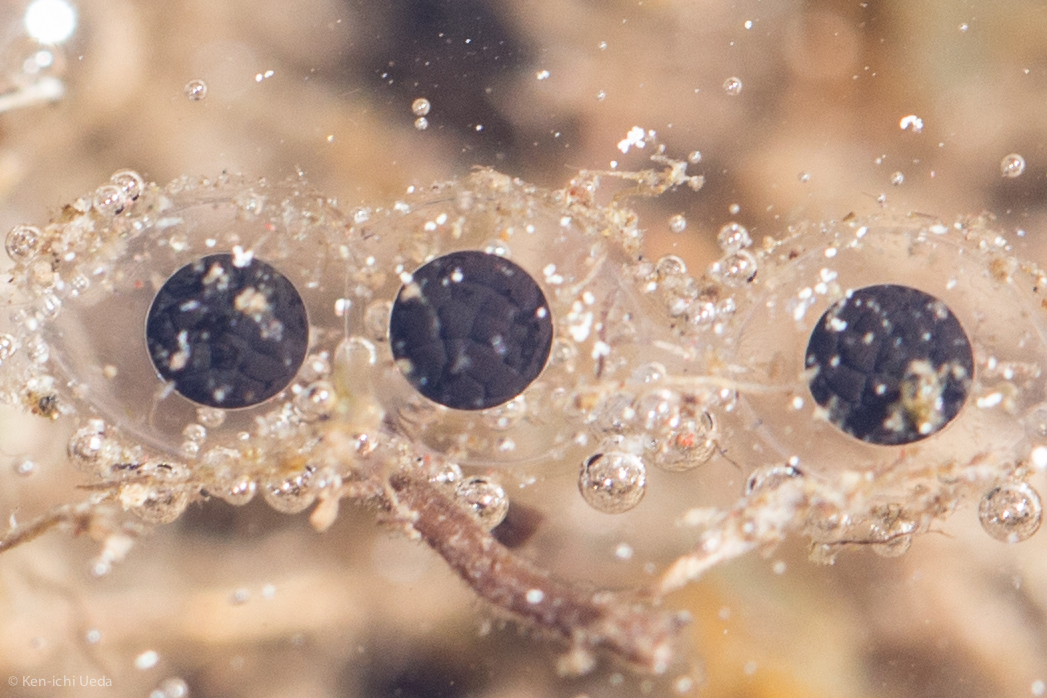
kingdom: Animalia
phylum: Chordata
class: Amphibia
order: Anura
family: Bufonidae
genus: Anaxyrus
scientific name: Anaxyrus canorus
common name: Yosemite toad
